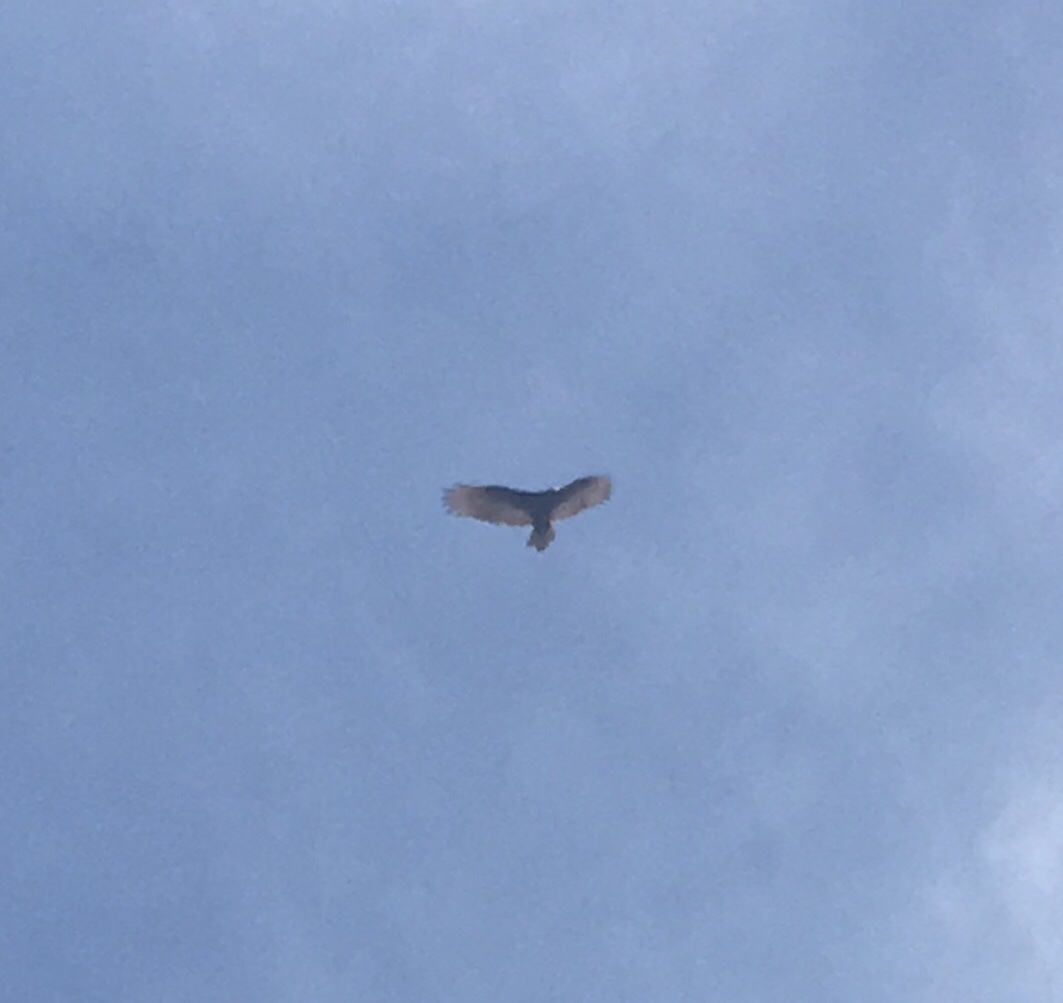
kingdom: Animalia
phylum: Chordata
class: Aves
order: Accipitriformes
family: Cathartidae
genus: Cathartes
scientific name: Cathartes aura
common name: Turkey vulture
